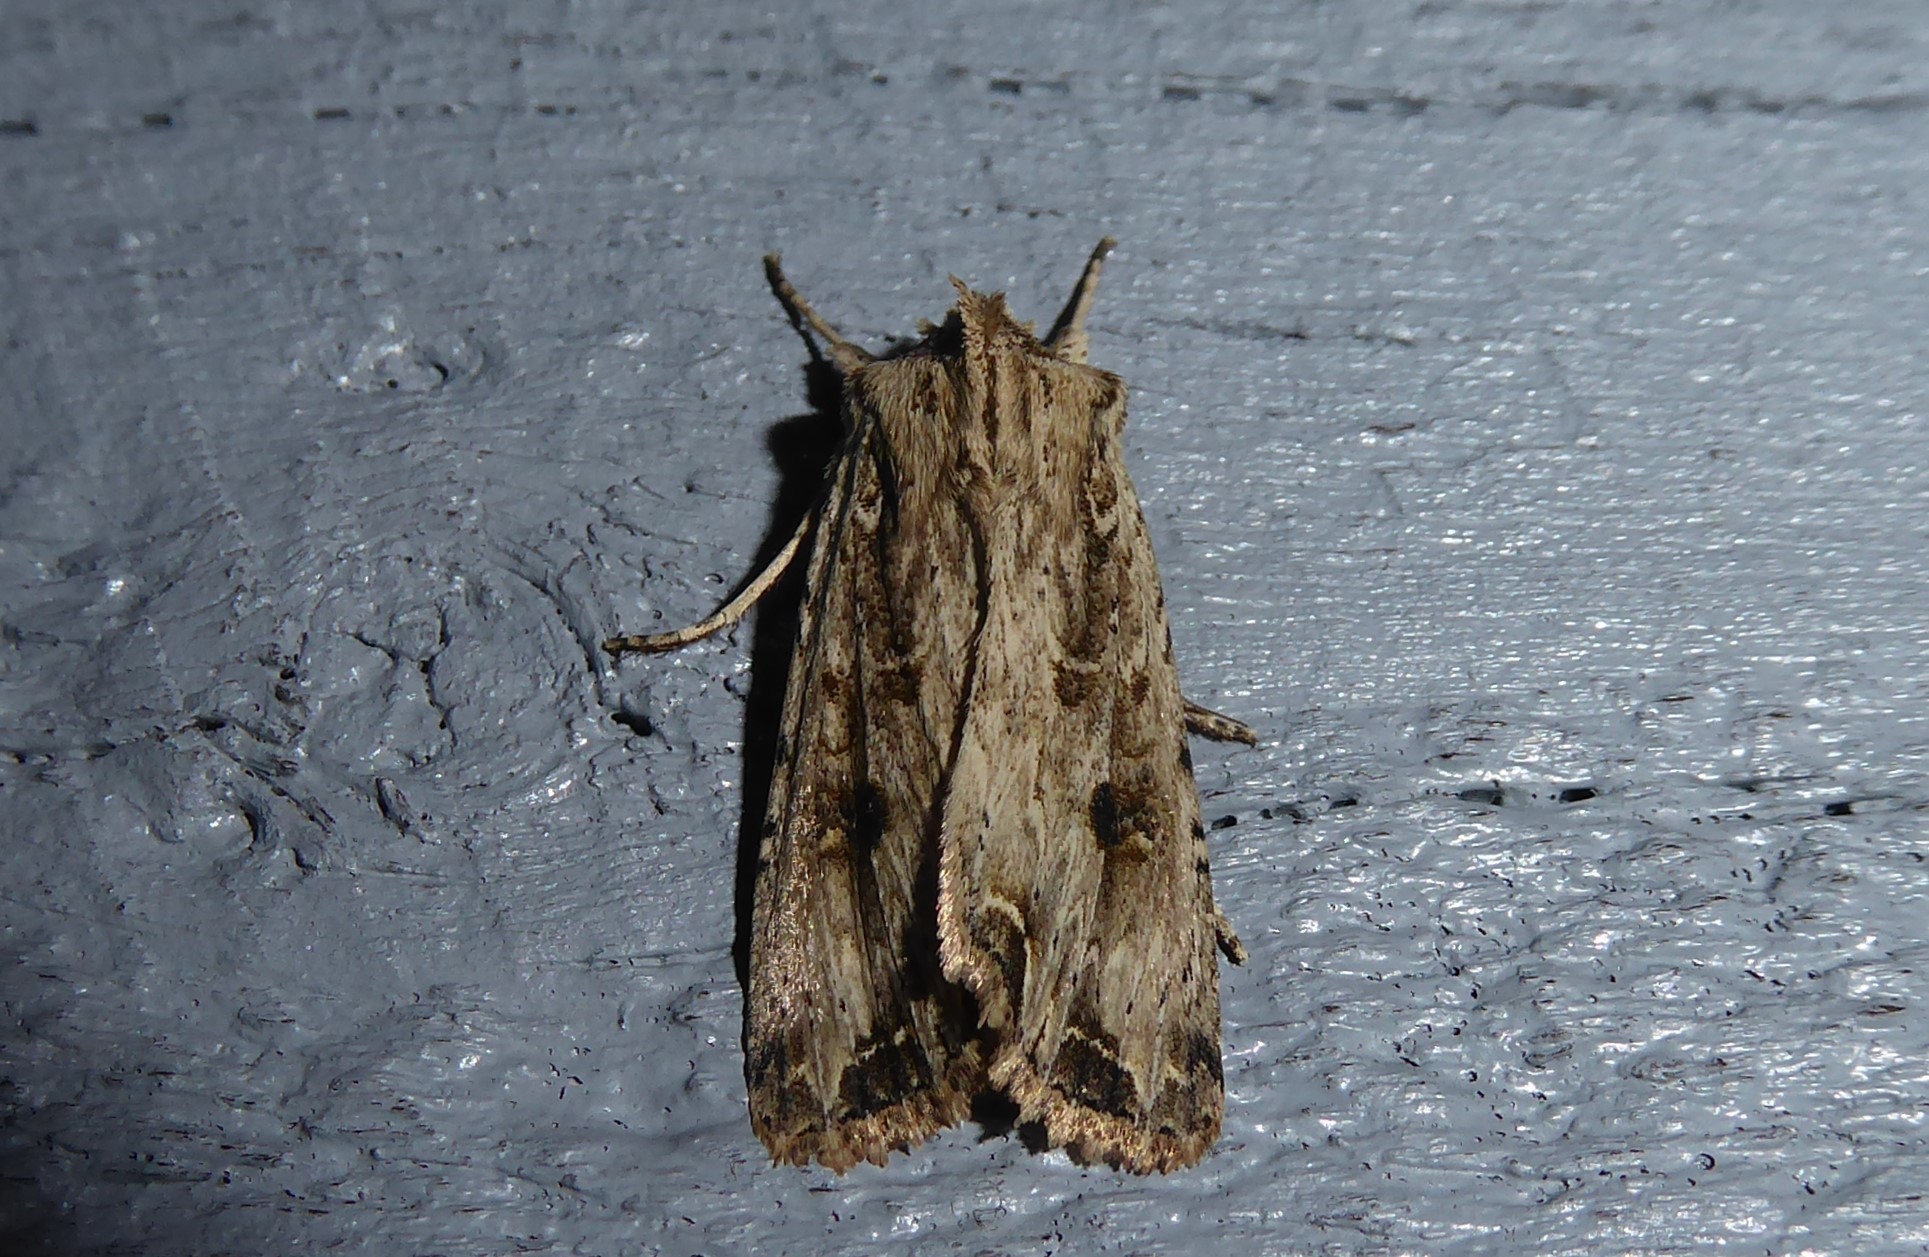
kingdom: Animalia
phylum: Arthropoda
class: Insecta
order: Lepidoptera
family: Noctuidae
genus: Ichneutica
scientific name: Ichneutica lignana
